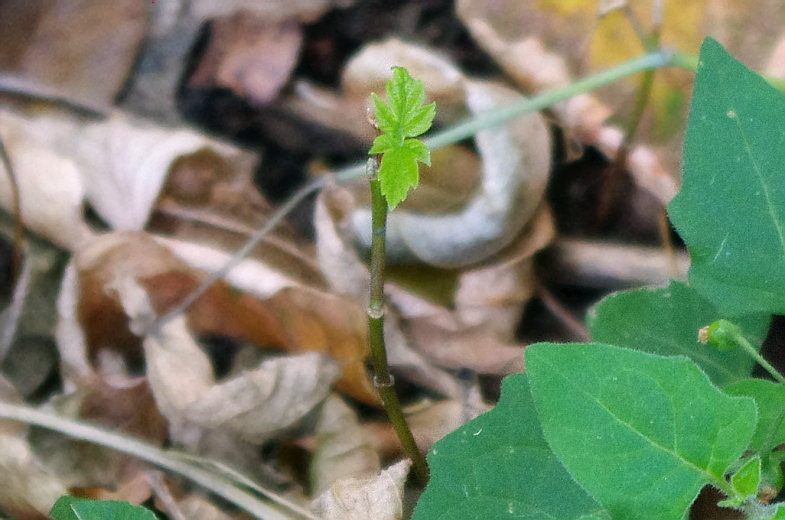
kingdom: Plantae
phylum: Tracheophyta
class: Magnoliopsida
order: Sapindales
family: Sapindaceae
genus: Acer
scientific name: Acer negundo
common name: Ashleaf maple
